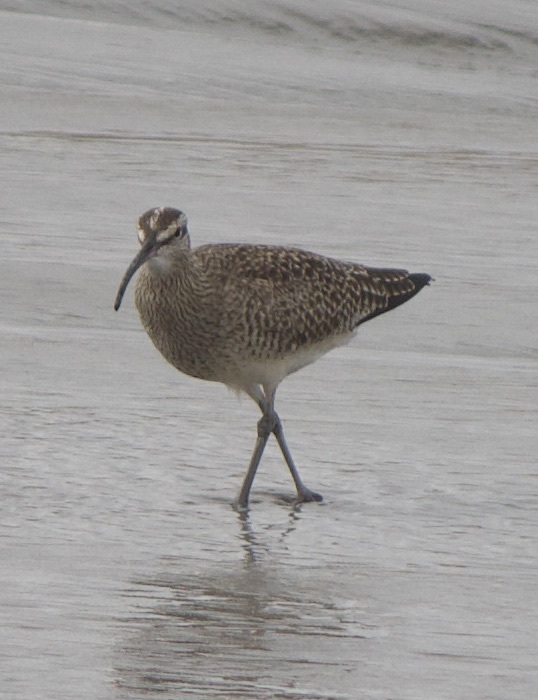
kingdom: Animalia
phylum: Chordata
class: Aves
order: Charadriiformes
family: Scolopacidae
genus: Numenius
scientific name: Numenius phaeopus
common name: Whimbrel
